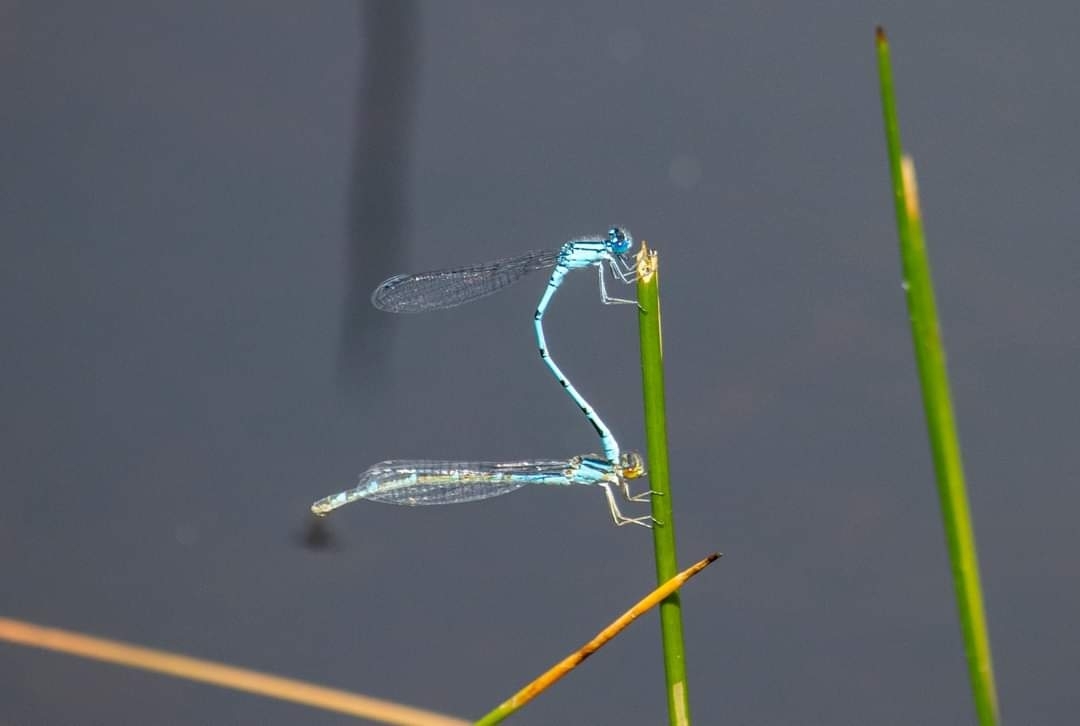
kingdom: Animalia
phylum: Arthropoda
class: Insecta
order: Odonata
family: Coenagrionidae
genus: Enallagma
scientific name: Enallagma cyathigerum
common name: Common blue damselfly
